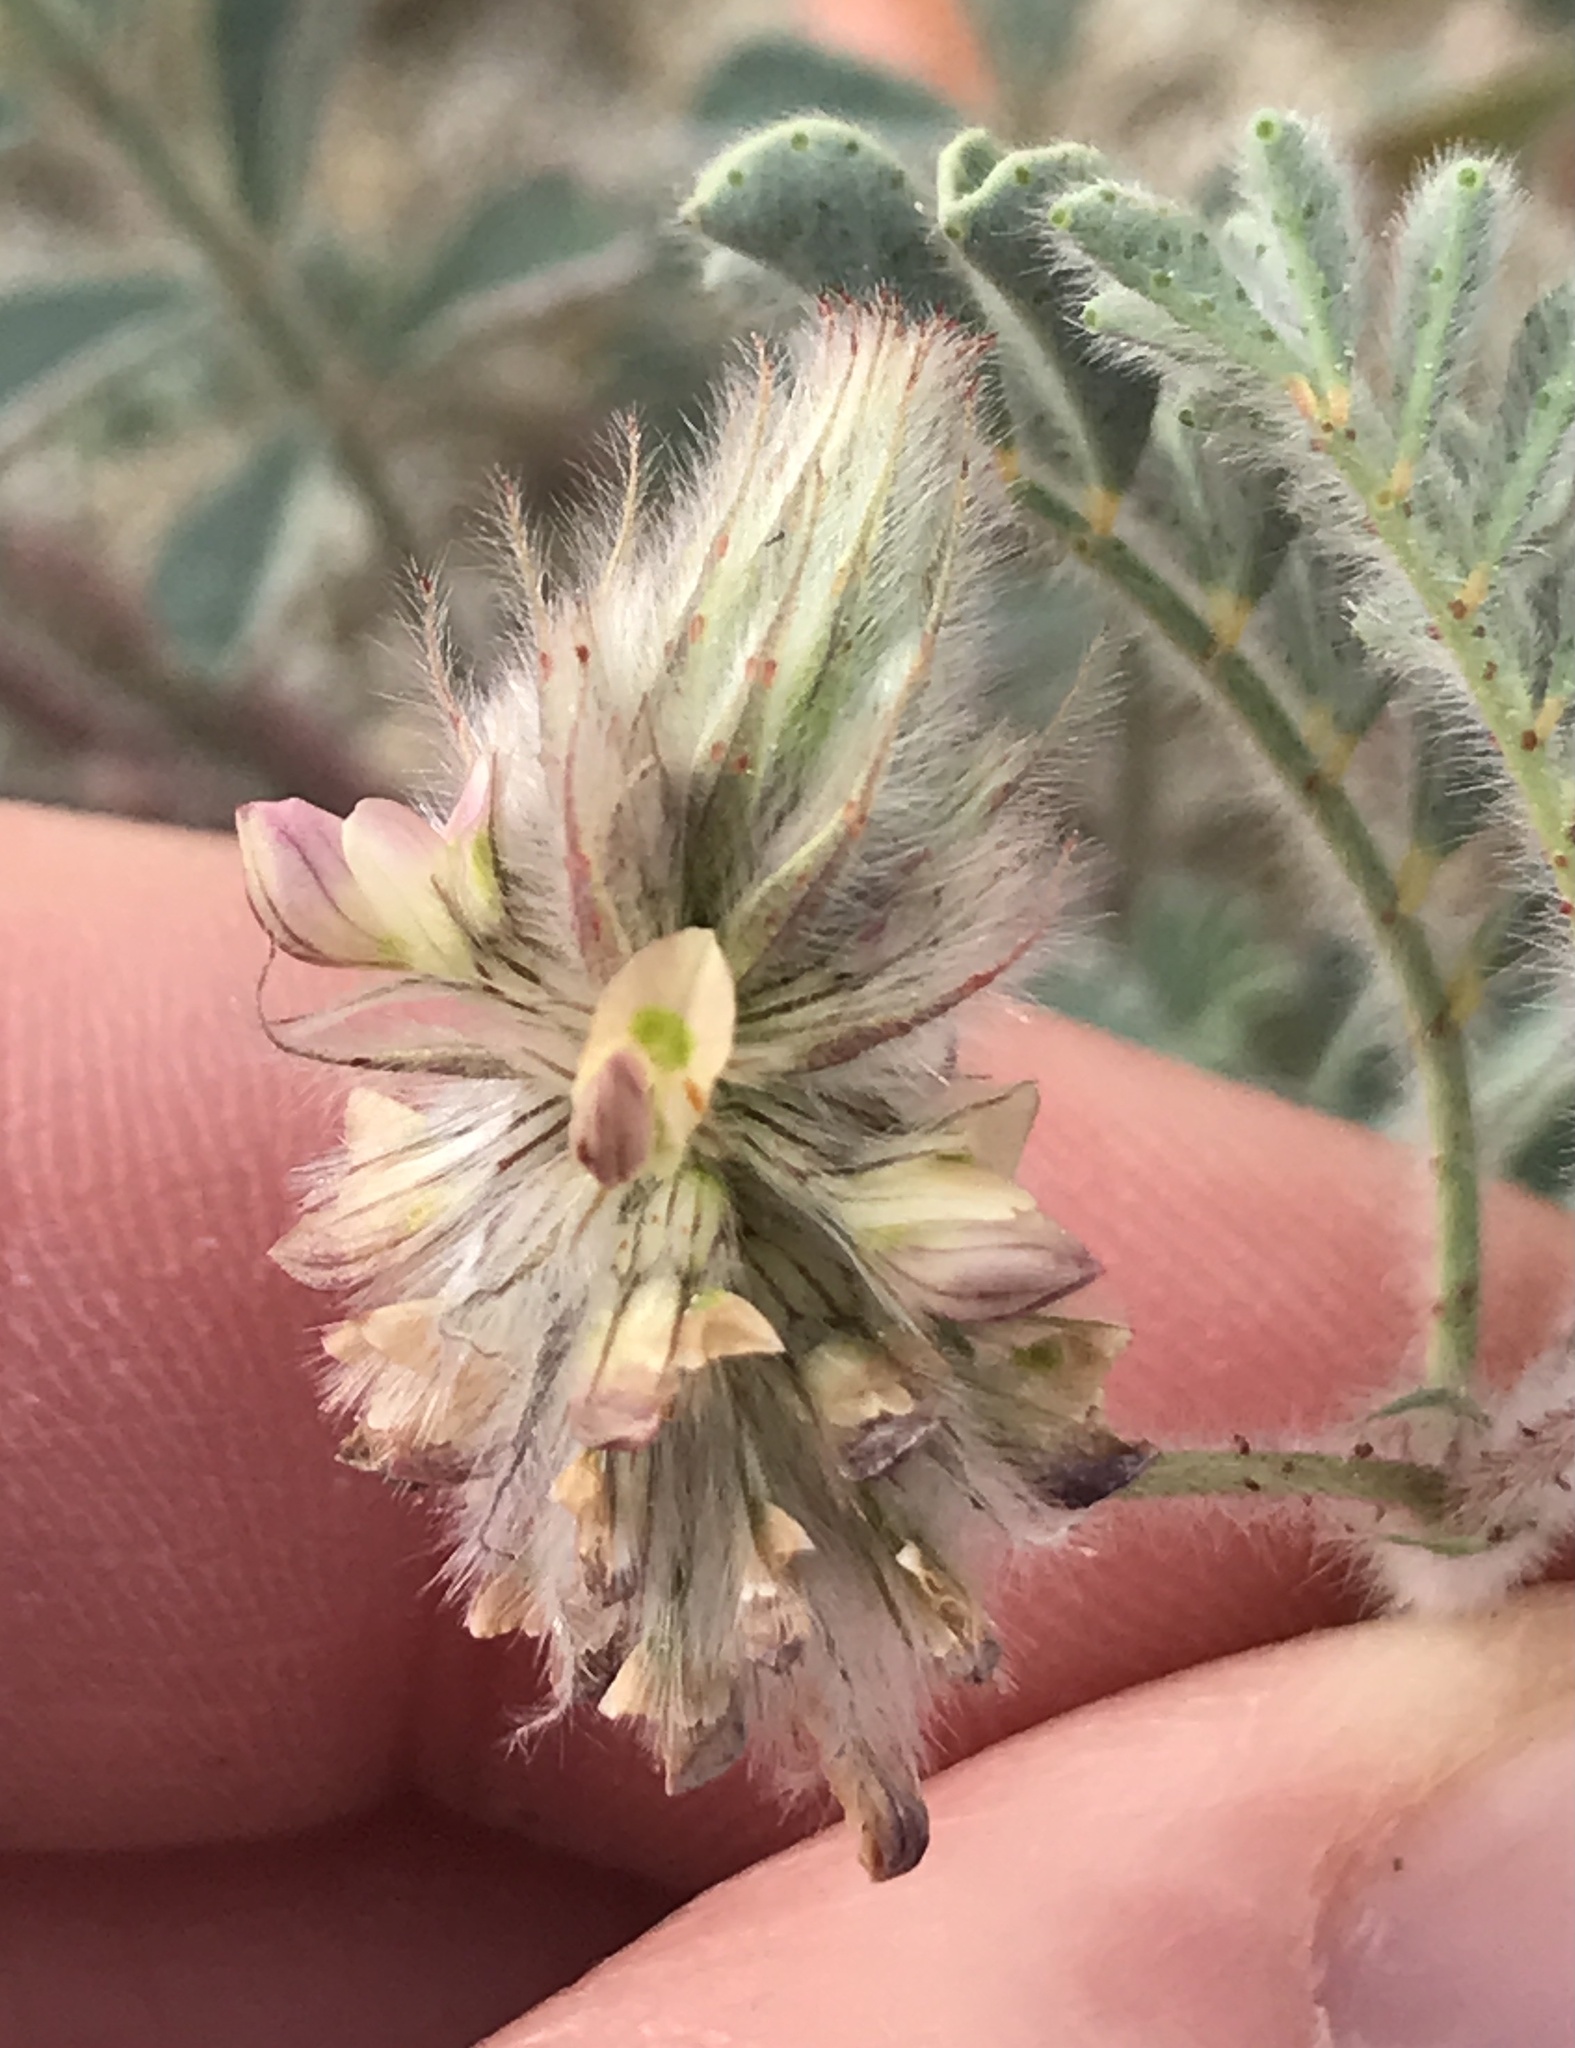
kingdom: Plantae
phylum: Tracheophyta
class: Magnoliopsida
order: Fabales
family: Fabaceae
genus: Dalea
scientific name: Dalea mollis
